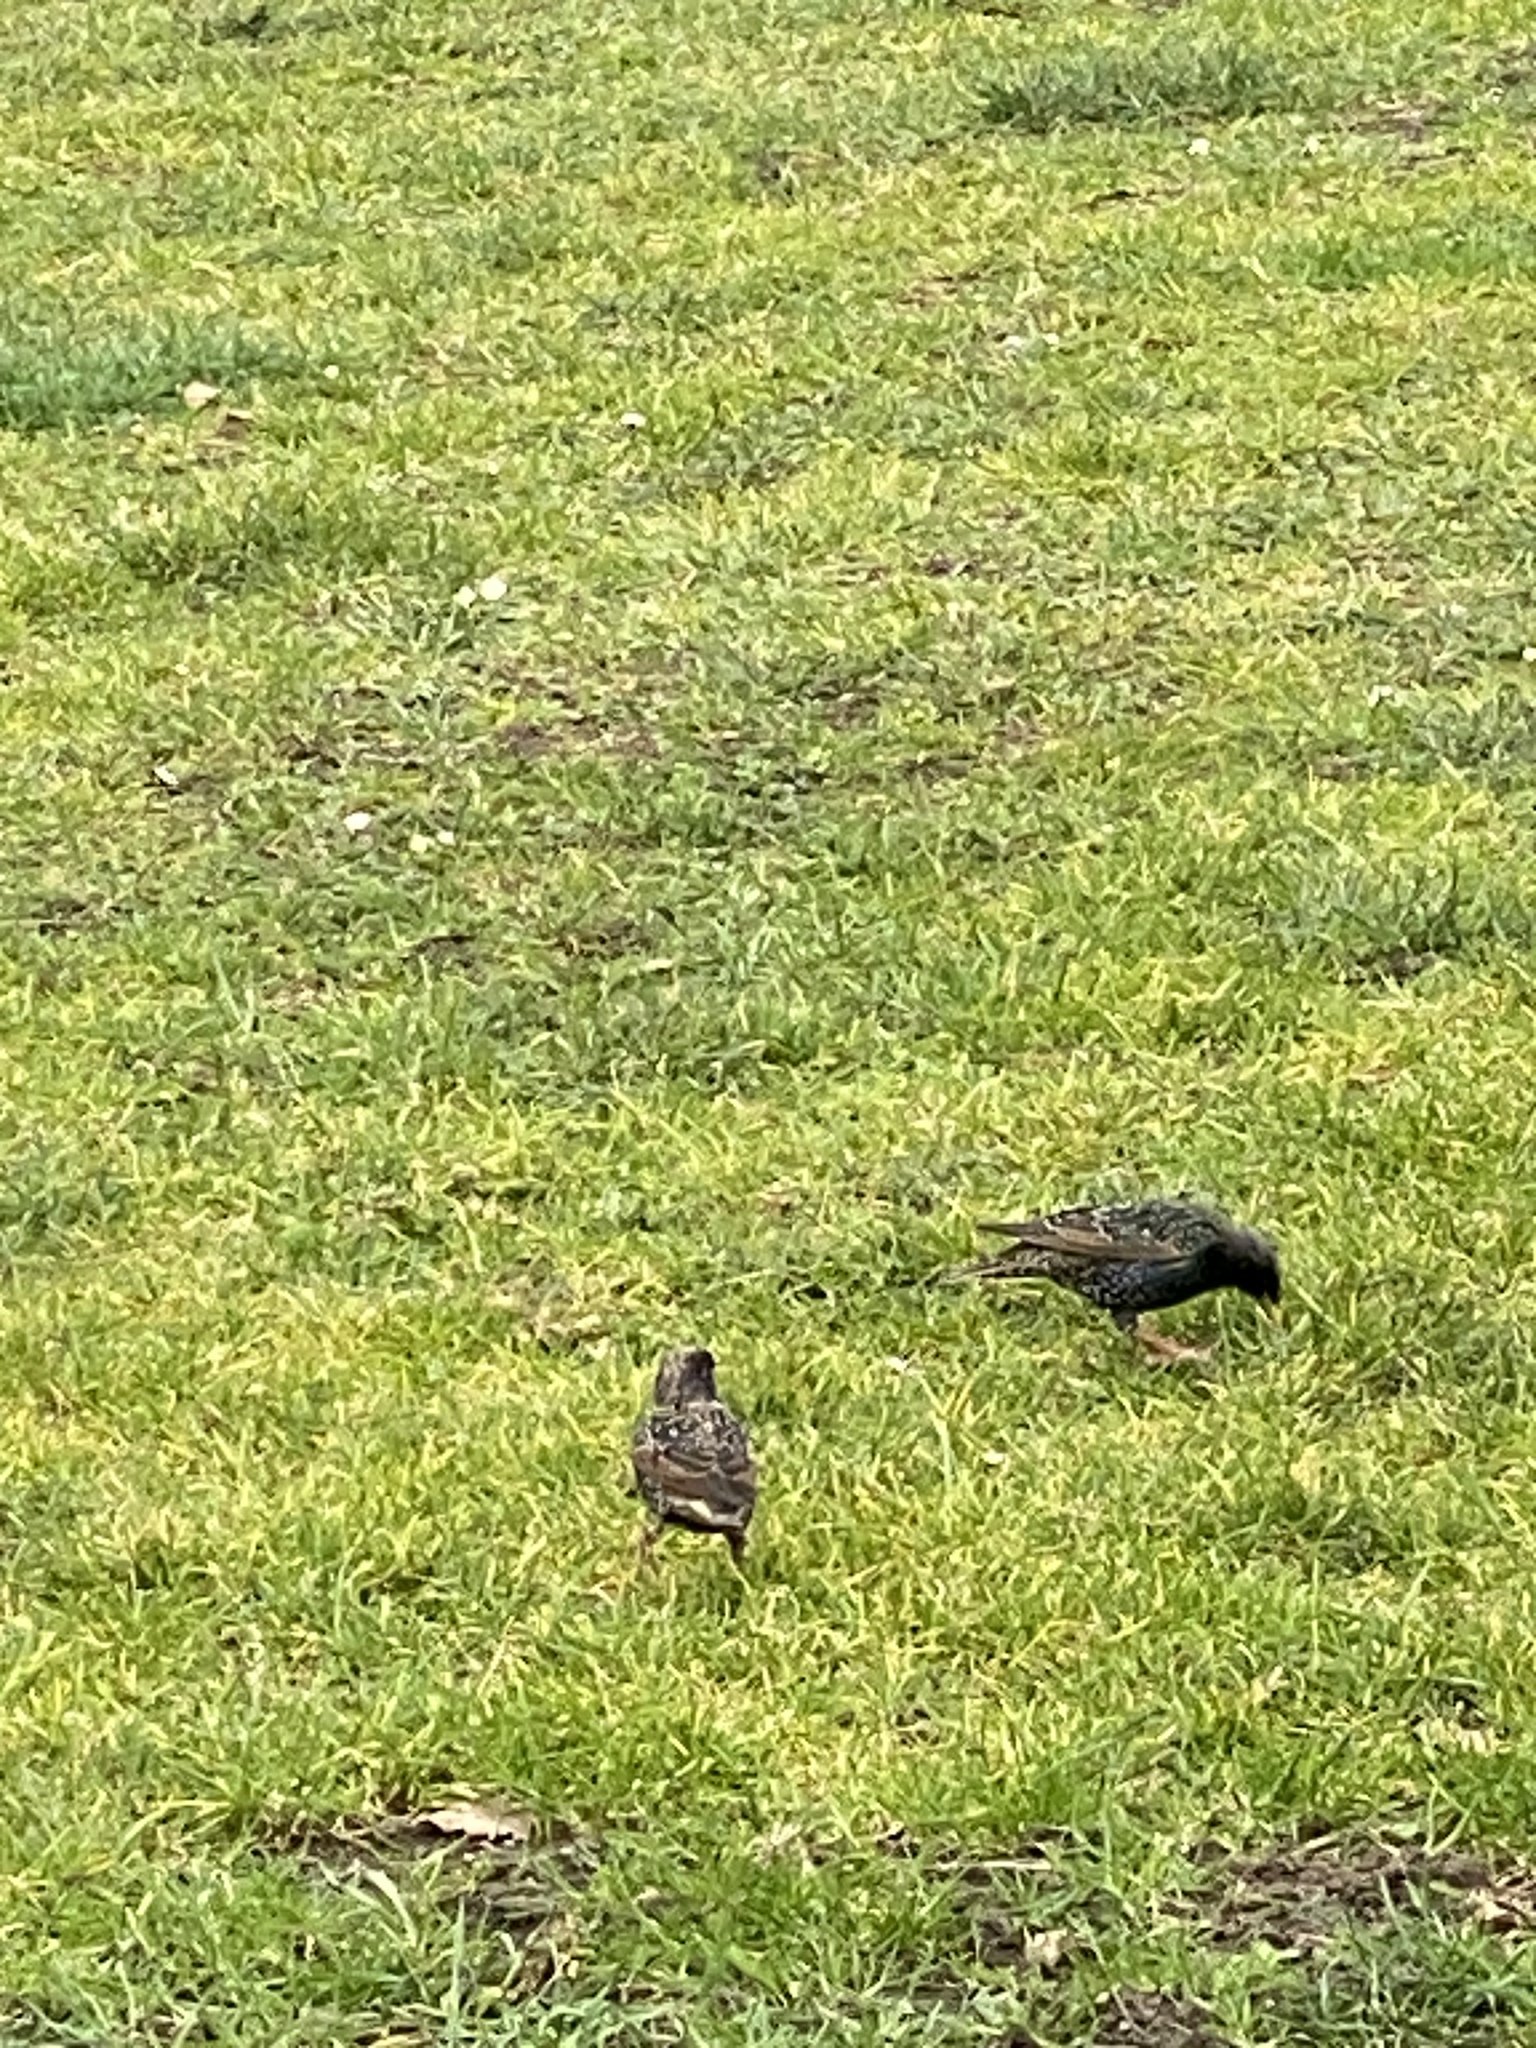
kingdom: Animalia
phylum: Chordata
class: Aves
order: Passeriformes
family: Sturnidae
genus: Sturnus
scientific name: Sturnus vulgaris
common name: Common starling
